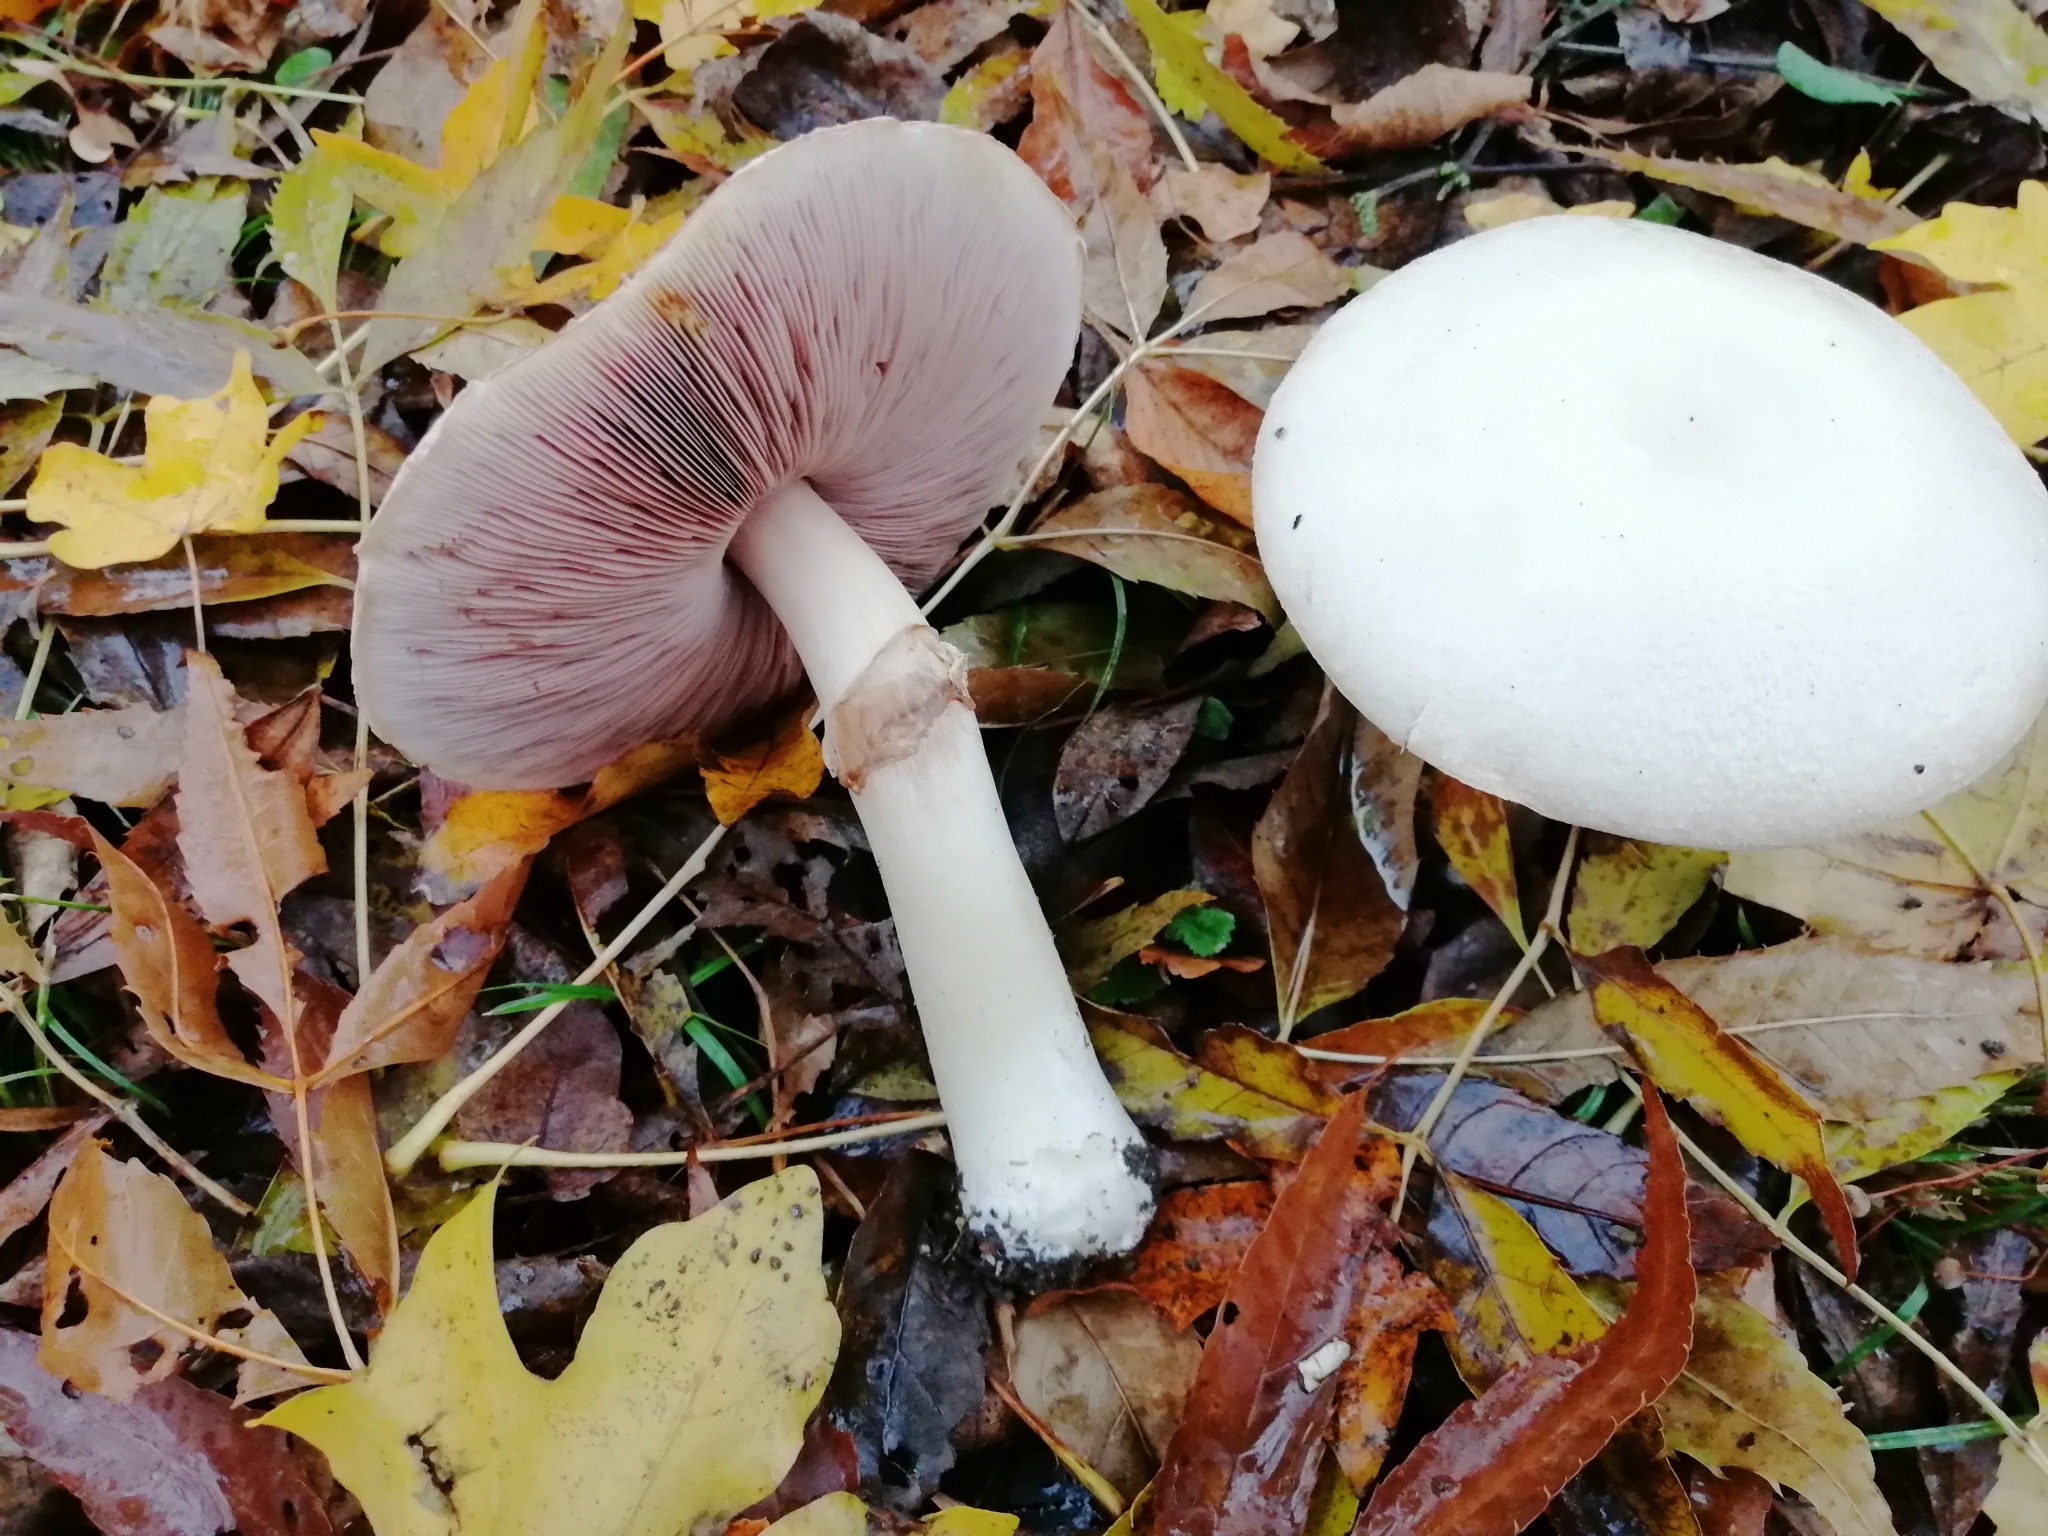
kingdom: Fungi
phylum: Basidiomycota
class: Agaricomycetes
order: Agaricales
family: Agaricaceae
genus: Agaricus
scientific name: Agaricus sylvicola
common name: Wood mushroom
